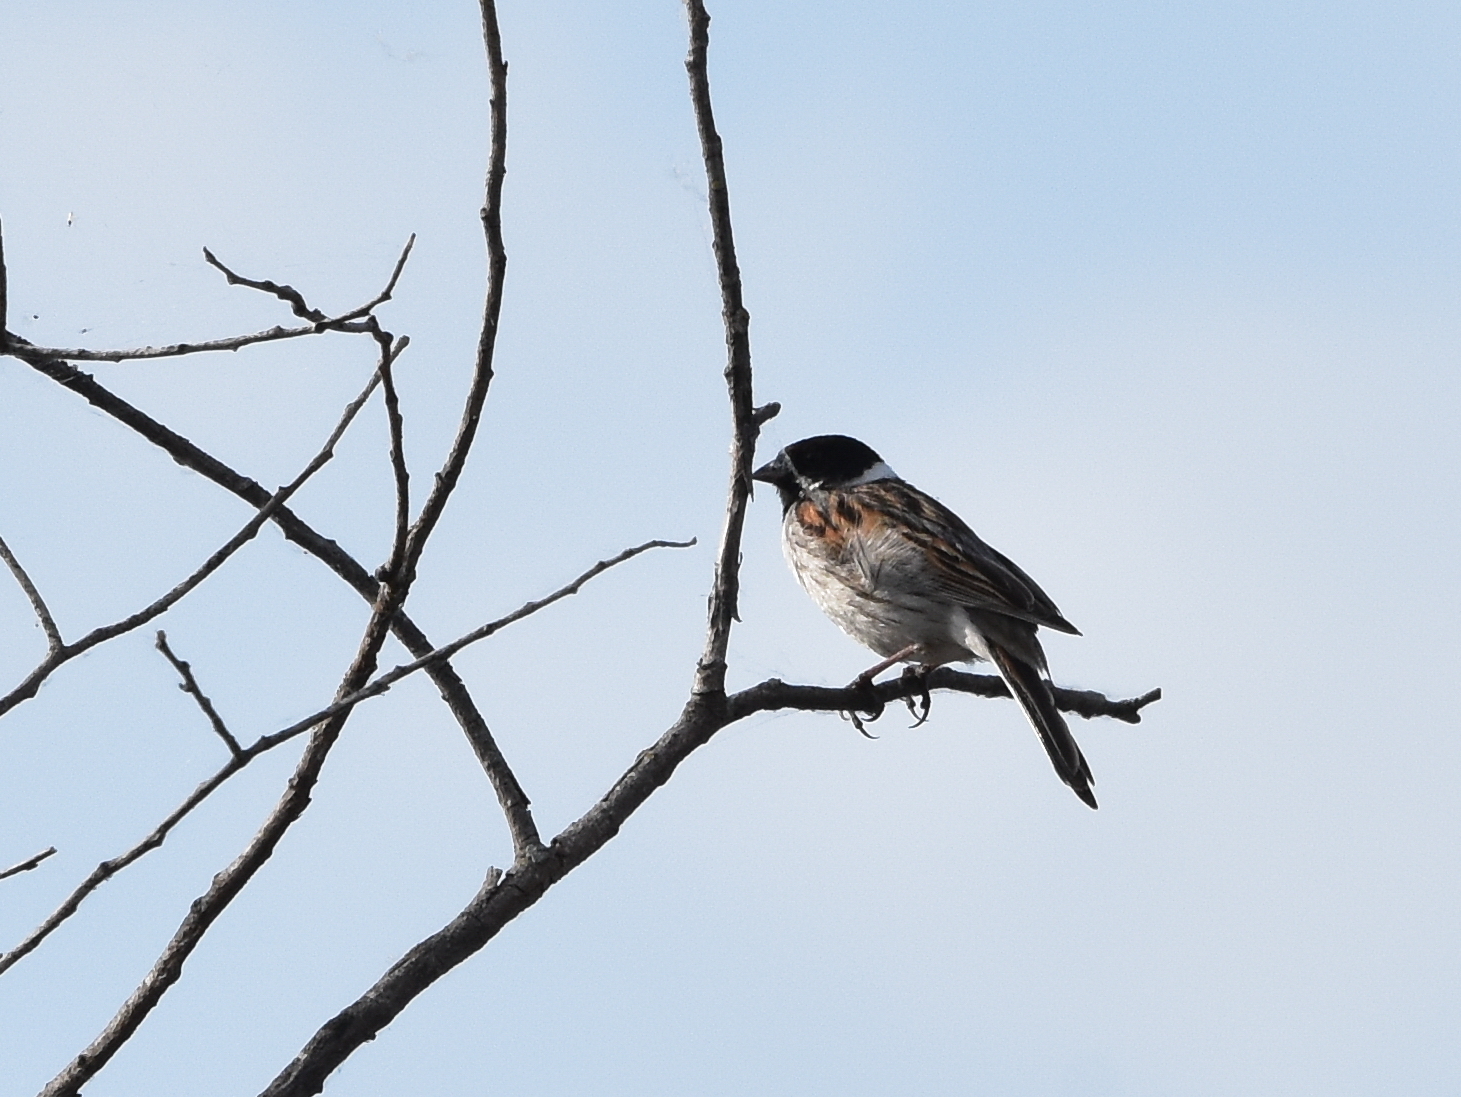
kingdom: Animalia
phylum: Chordata
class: Aves
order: Passeriformes
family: Emberizidae
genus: Emberiza
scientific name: Emberiza schoeniclus
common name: Reed bunting
